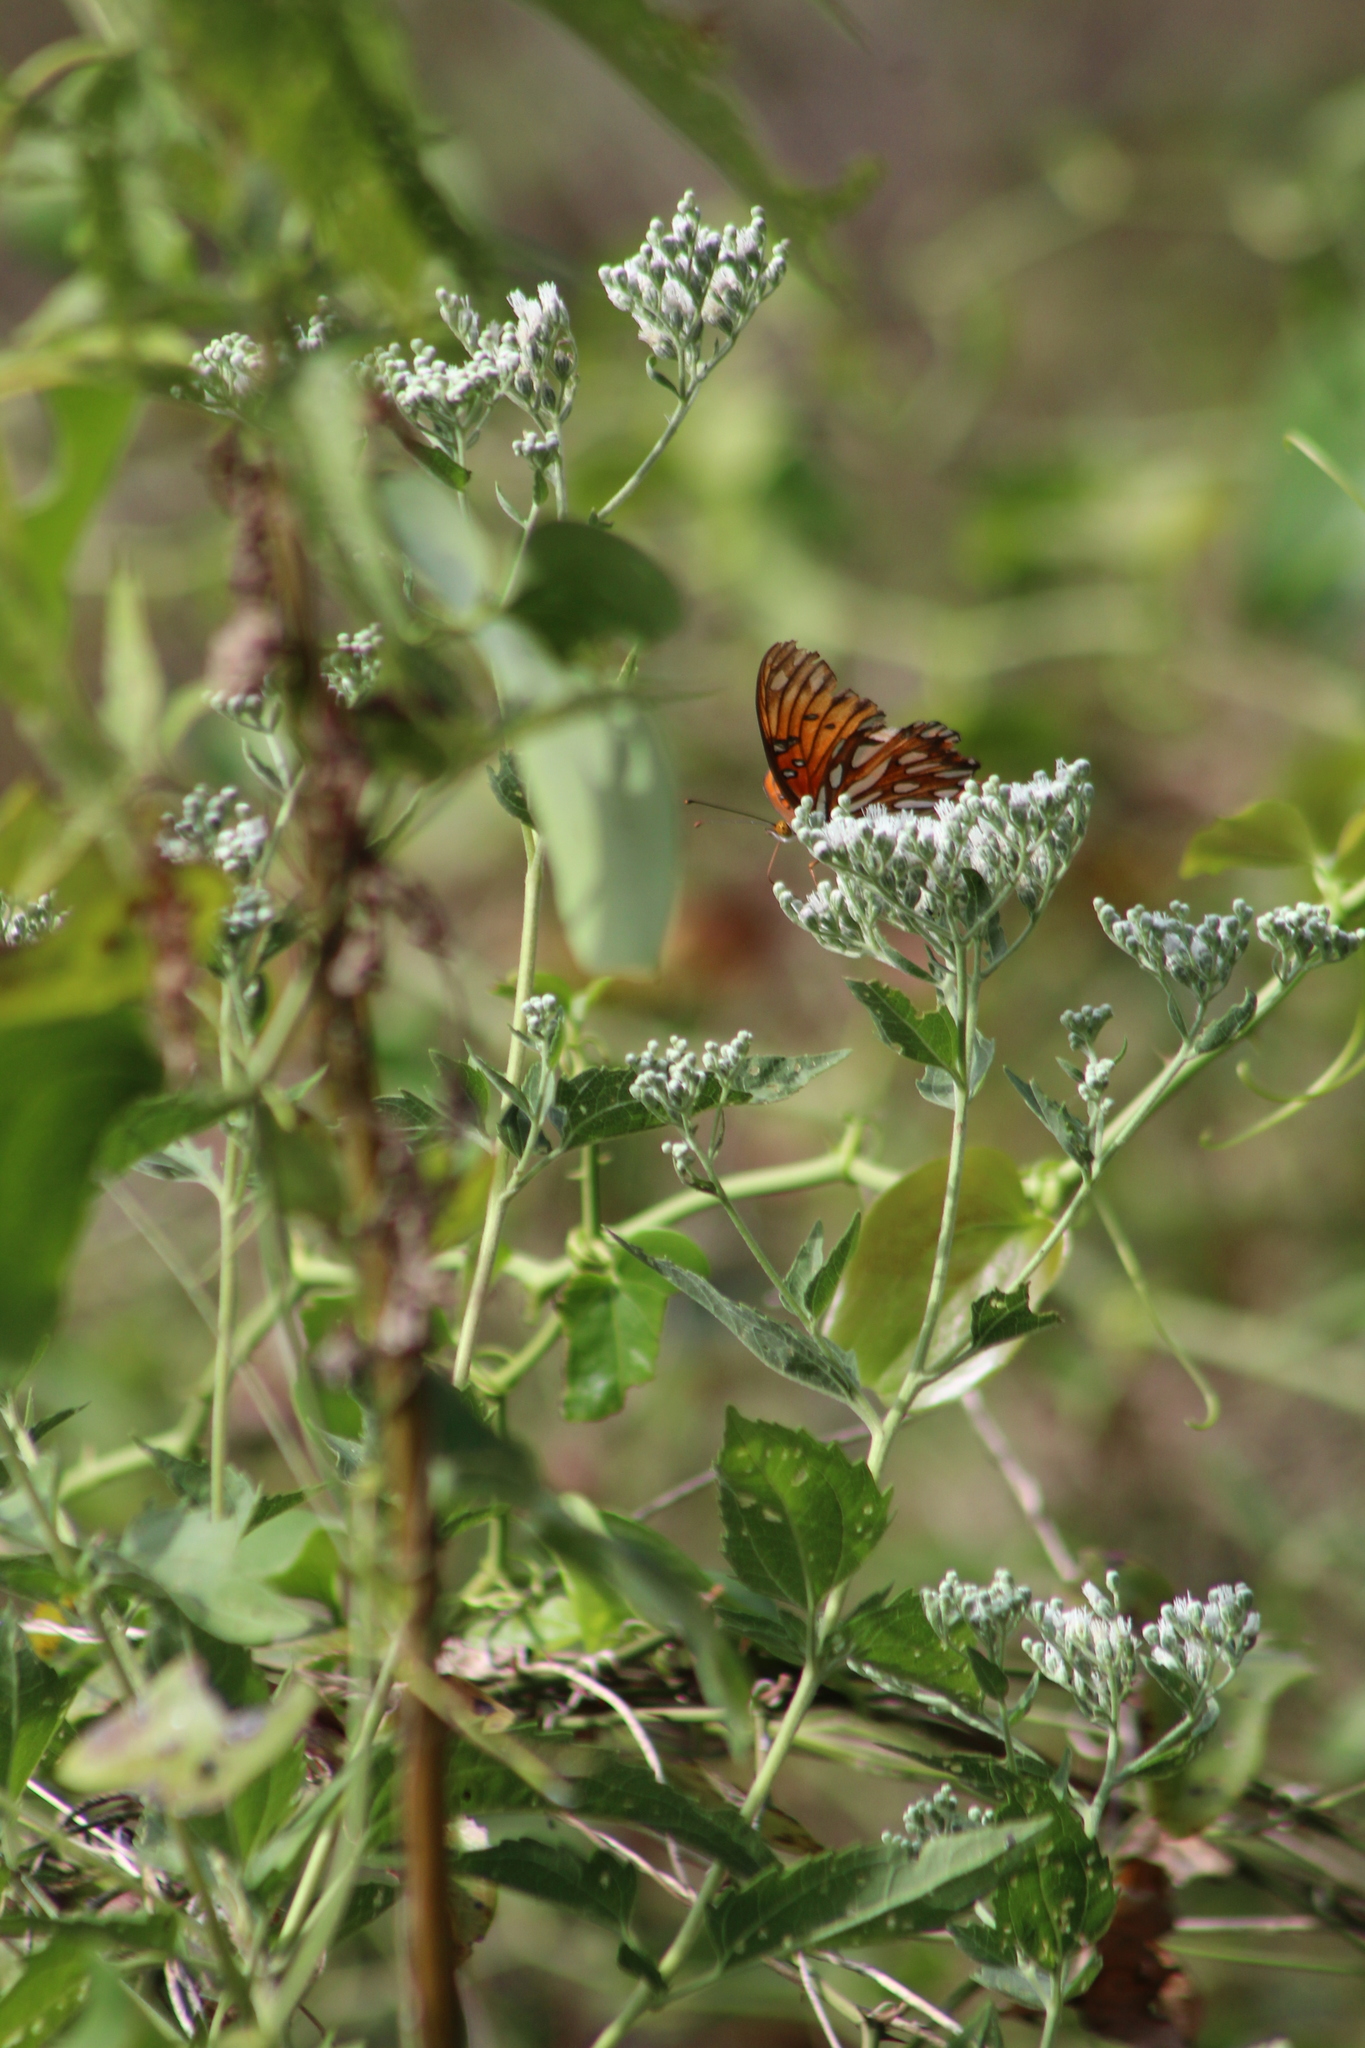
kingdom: Animalia
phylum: Arthropoda
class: Insecta
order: Lepidoptera
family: Nymphalidae
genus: Dione
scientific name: Dione vanillae
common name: Gulf fritillary
